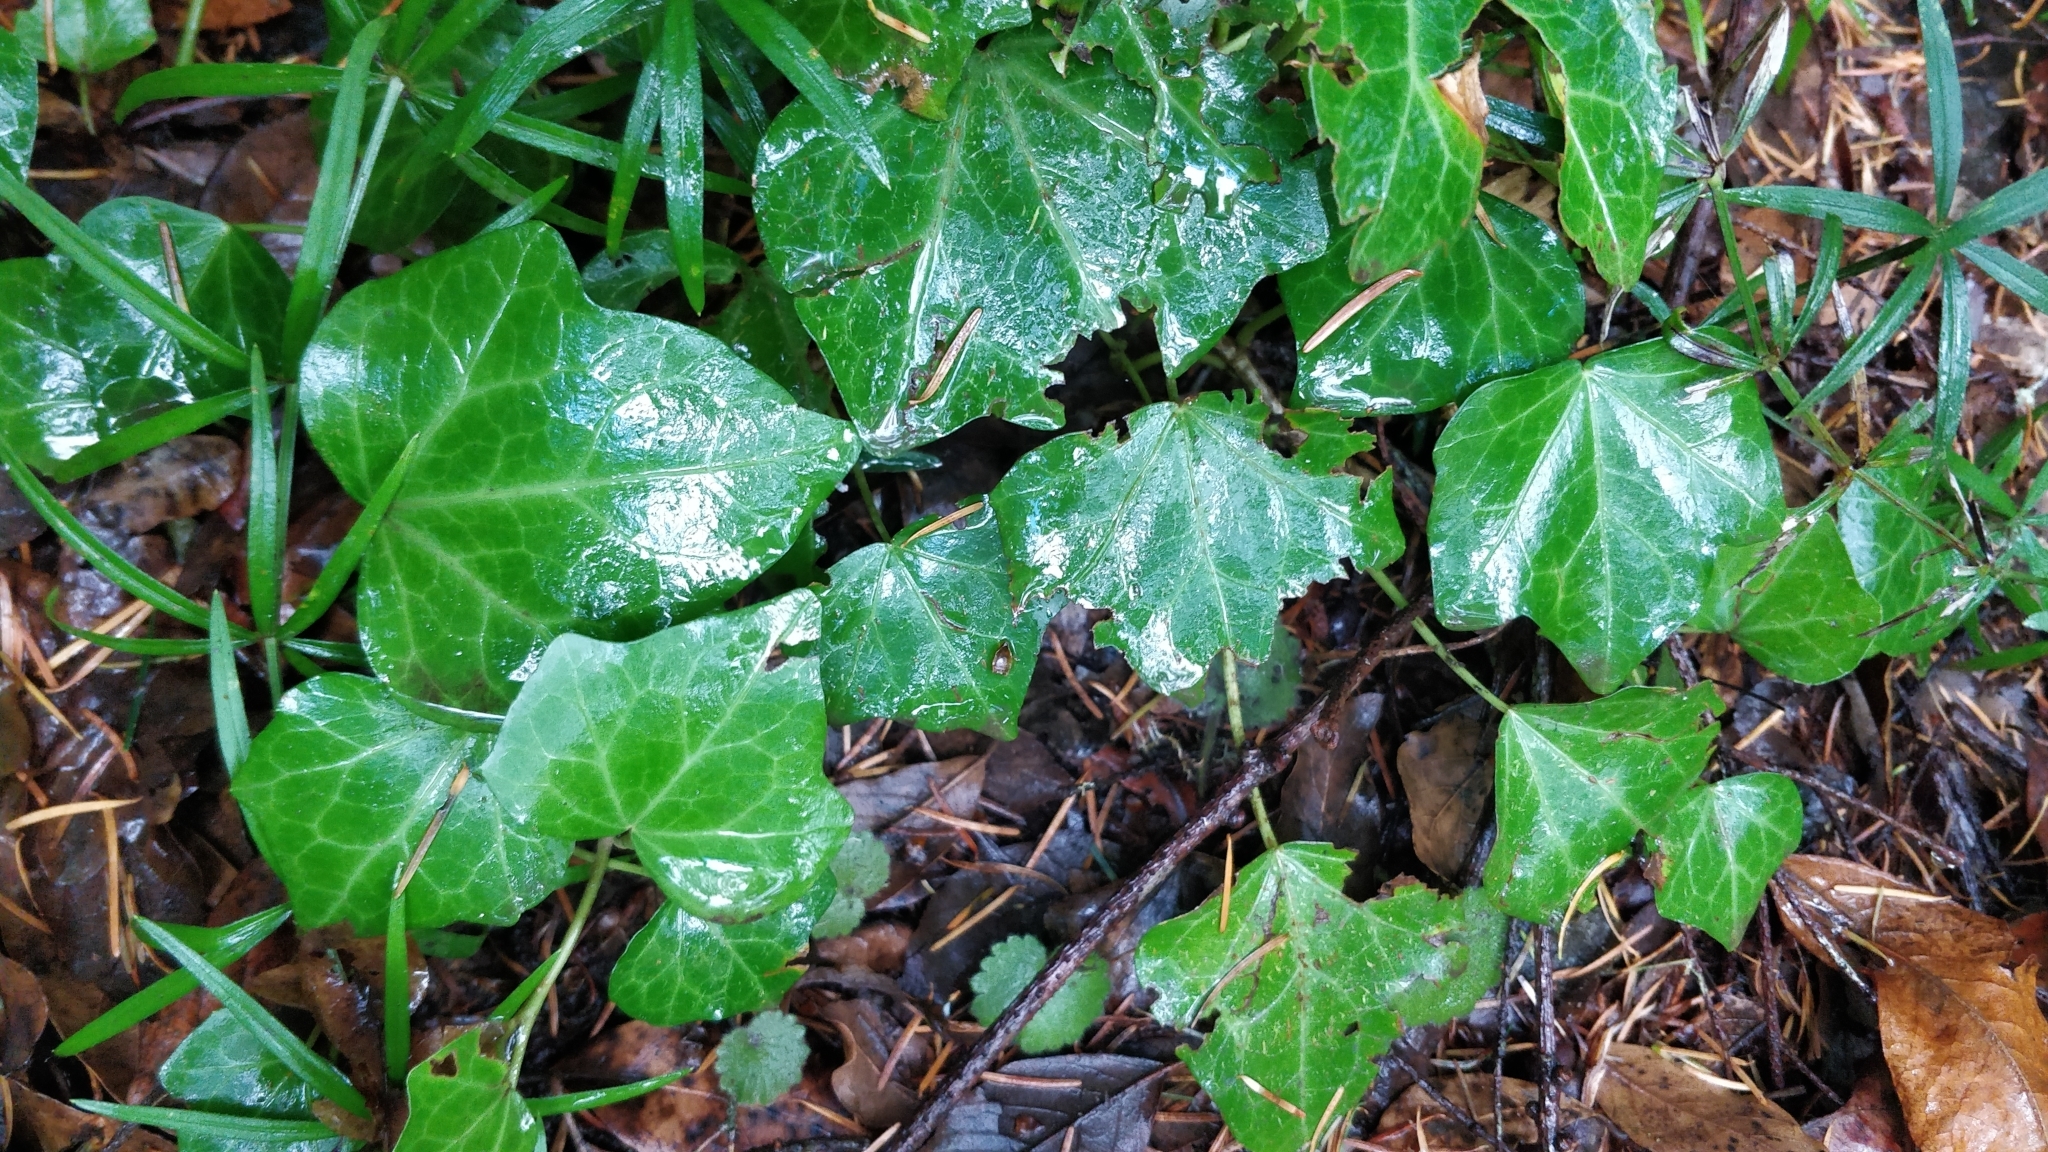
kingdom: Plantae
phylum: Tracheophyta
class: Magnoliopsida
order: Apiales
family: Araliaceae
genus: Hedera
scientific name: Hedera maderensis
